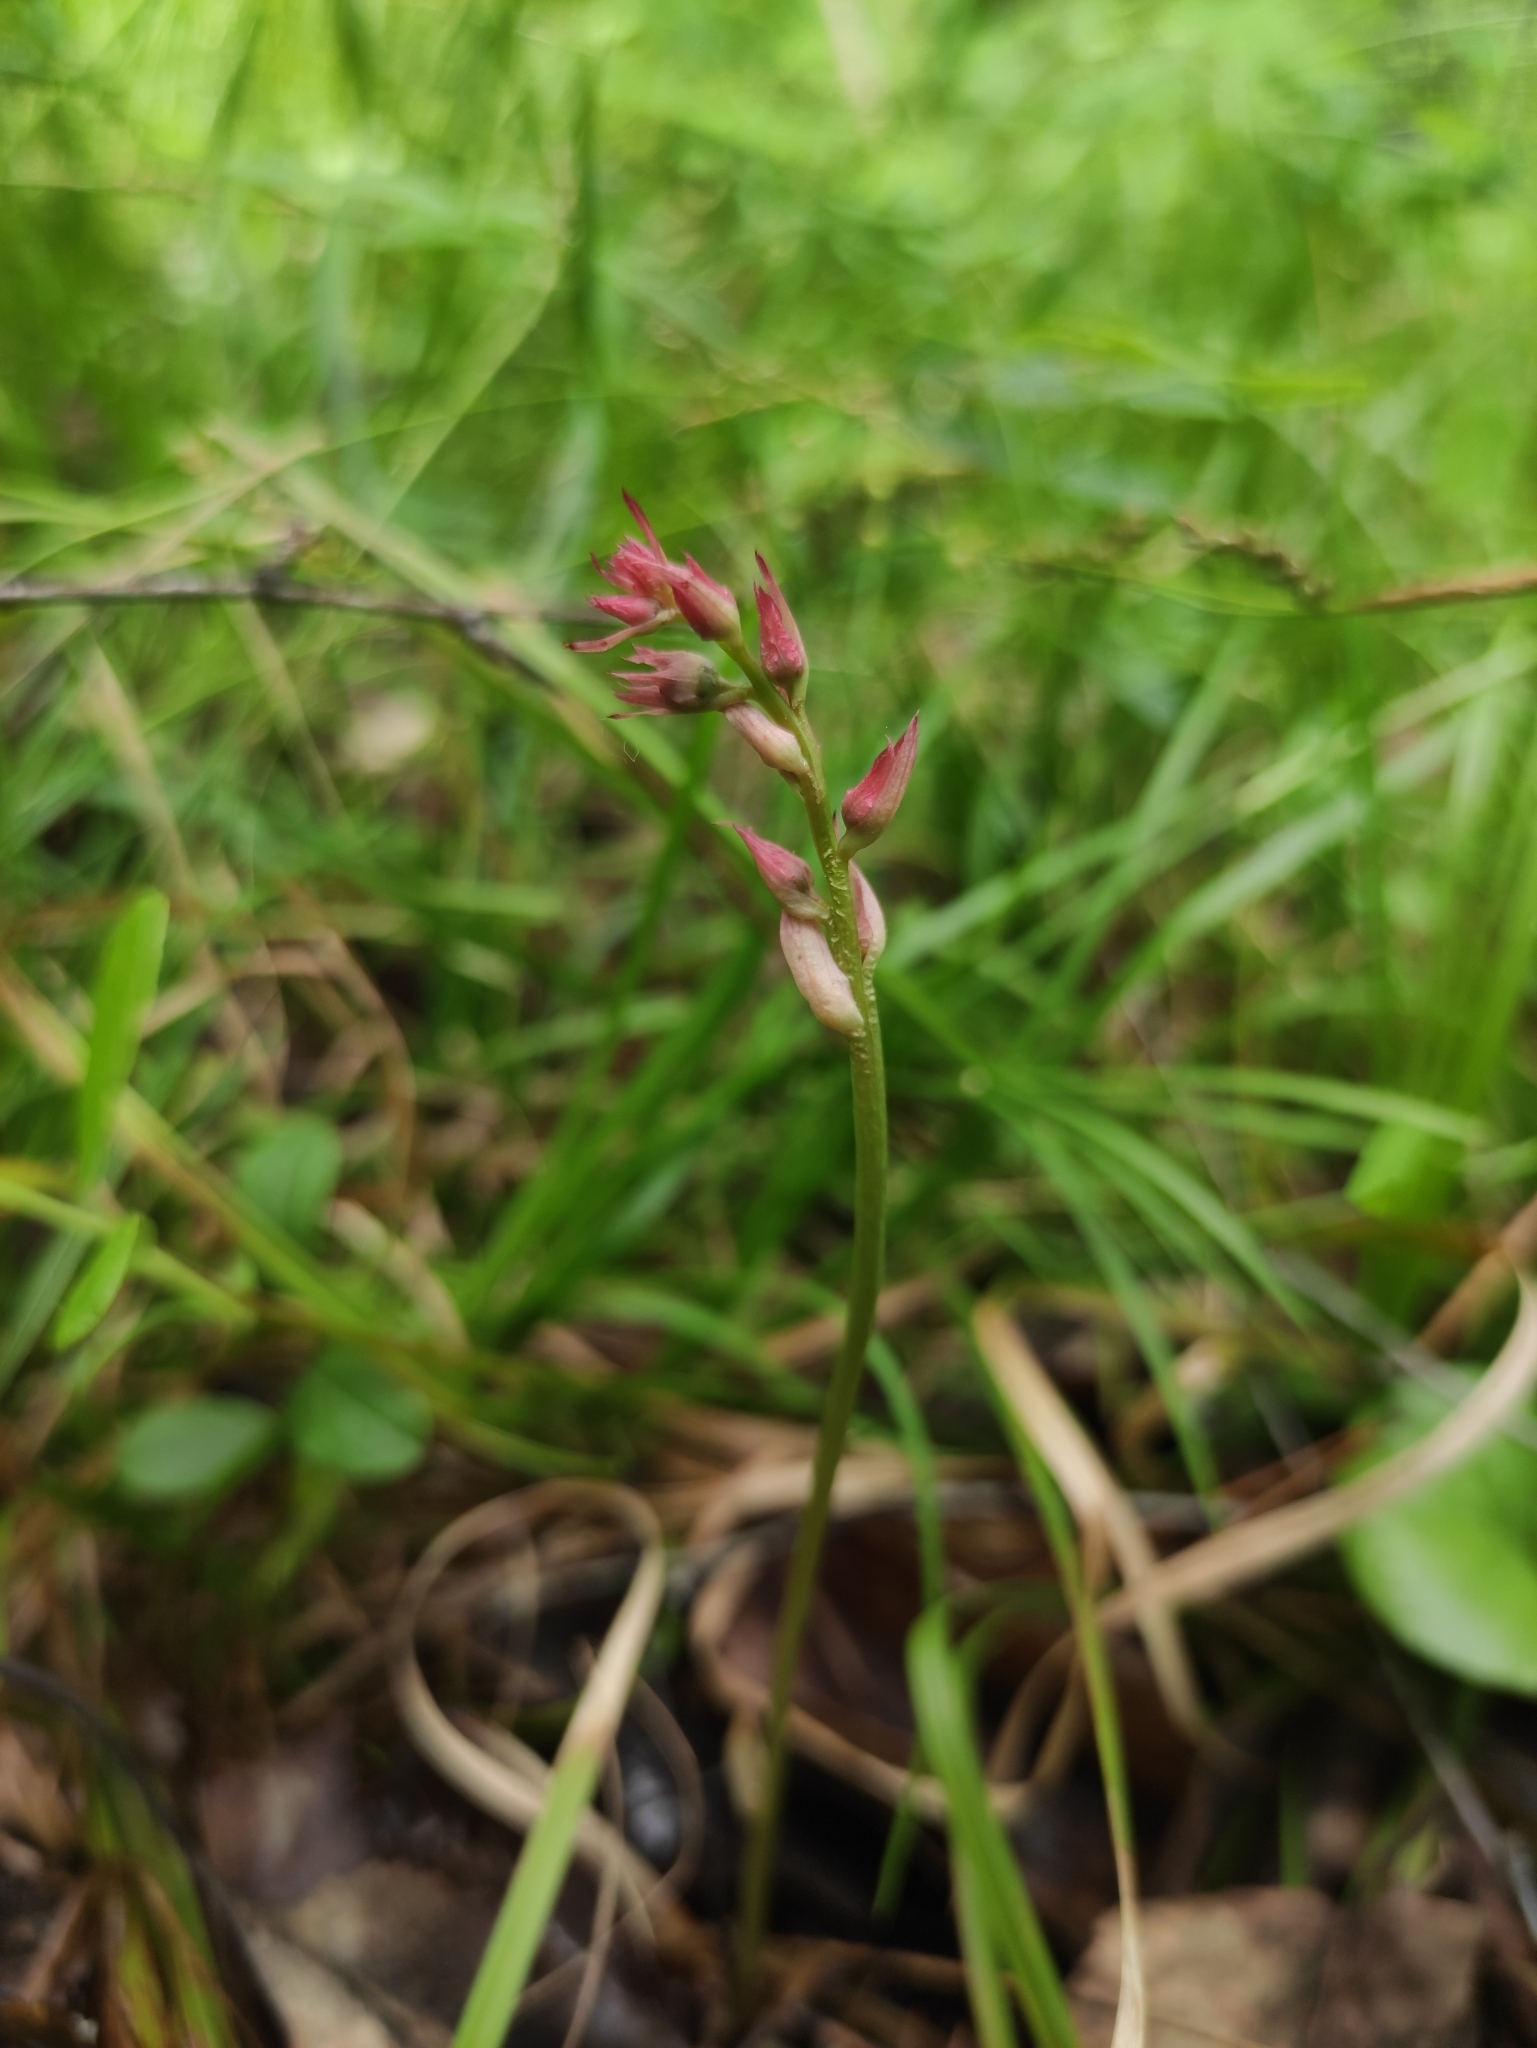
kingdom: Plantae
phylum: Tracheophyta
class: Liliopsida
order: Asparagales
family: Orchidaceae
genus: Hemipilia
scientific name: Hemipilia cucullata
